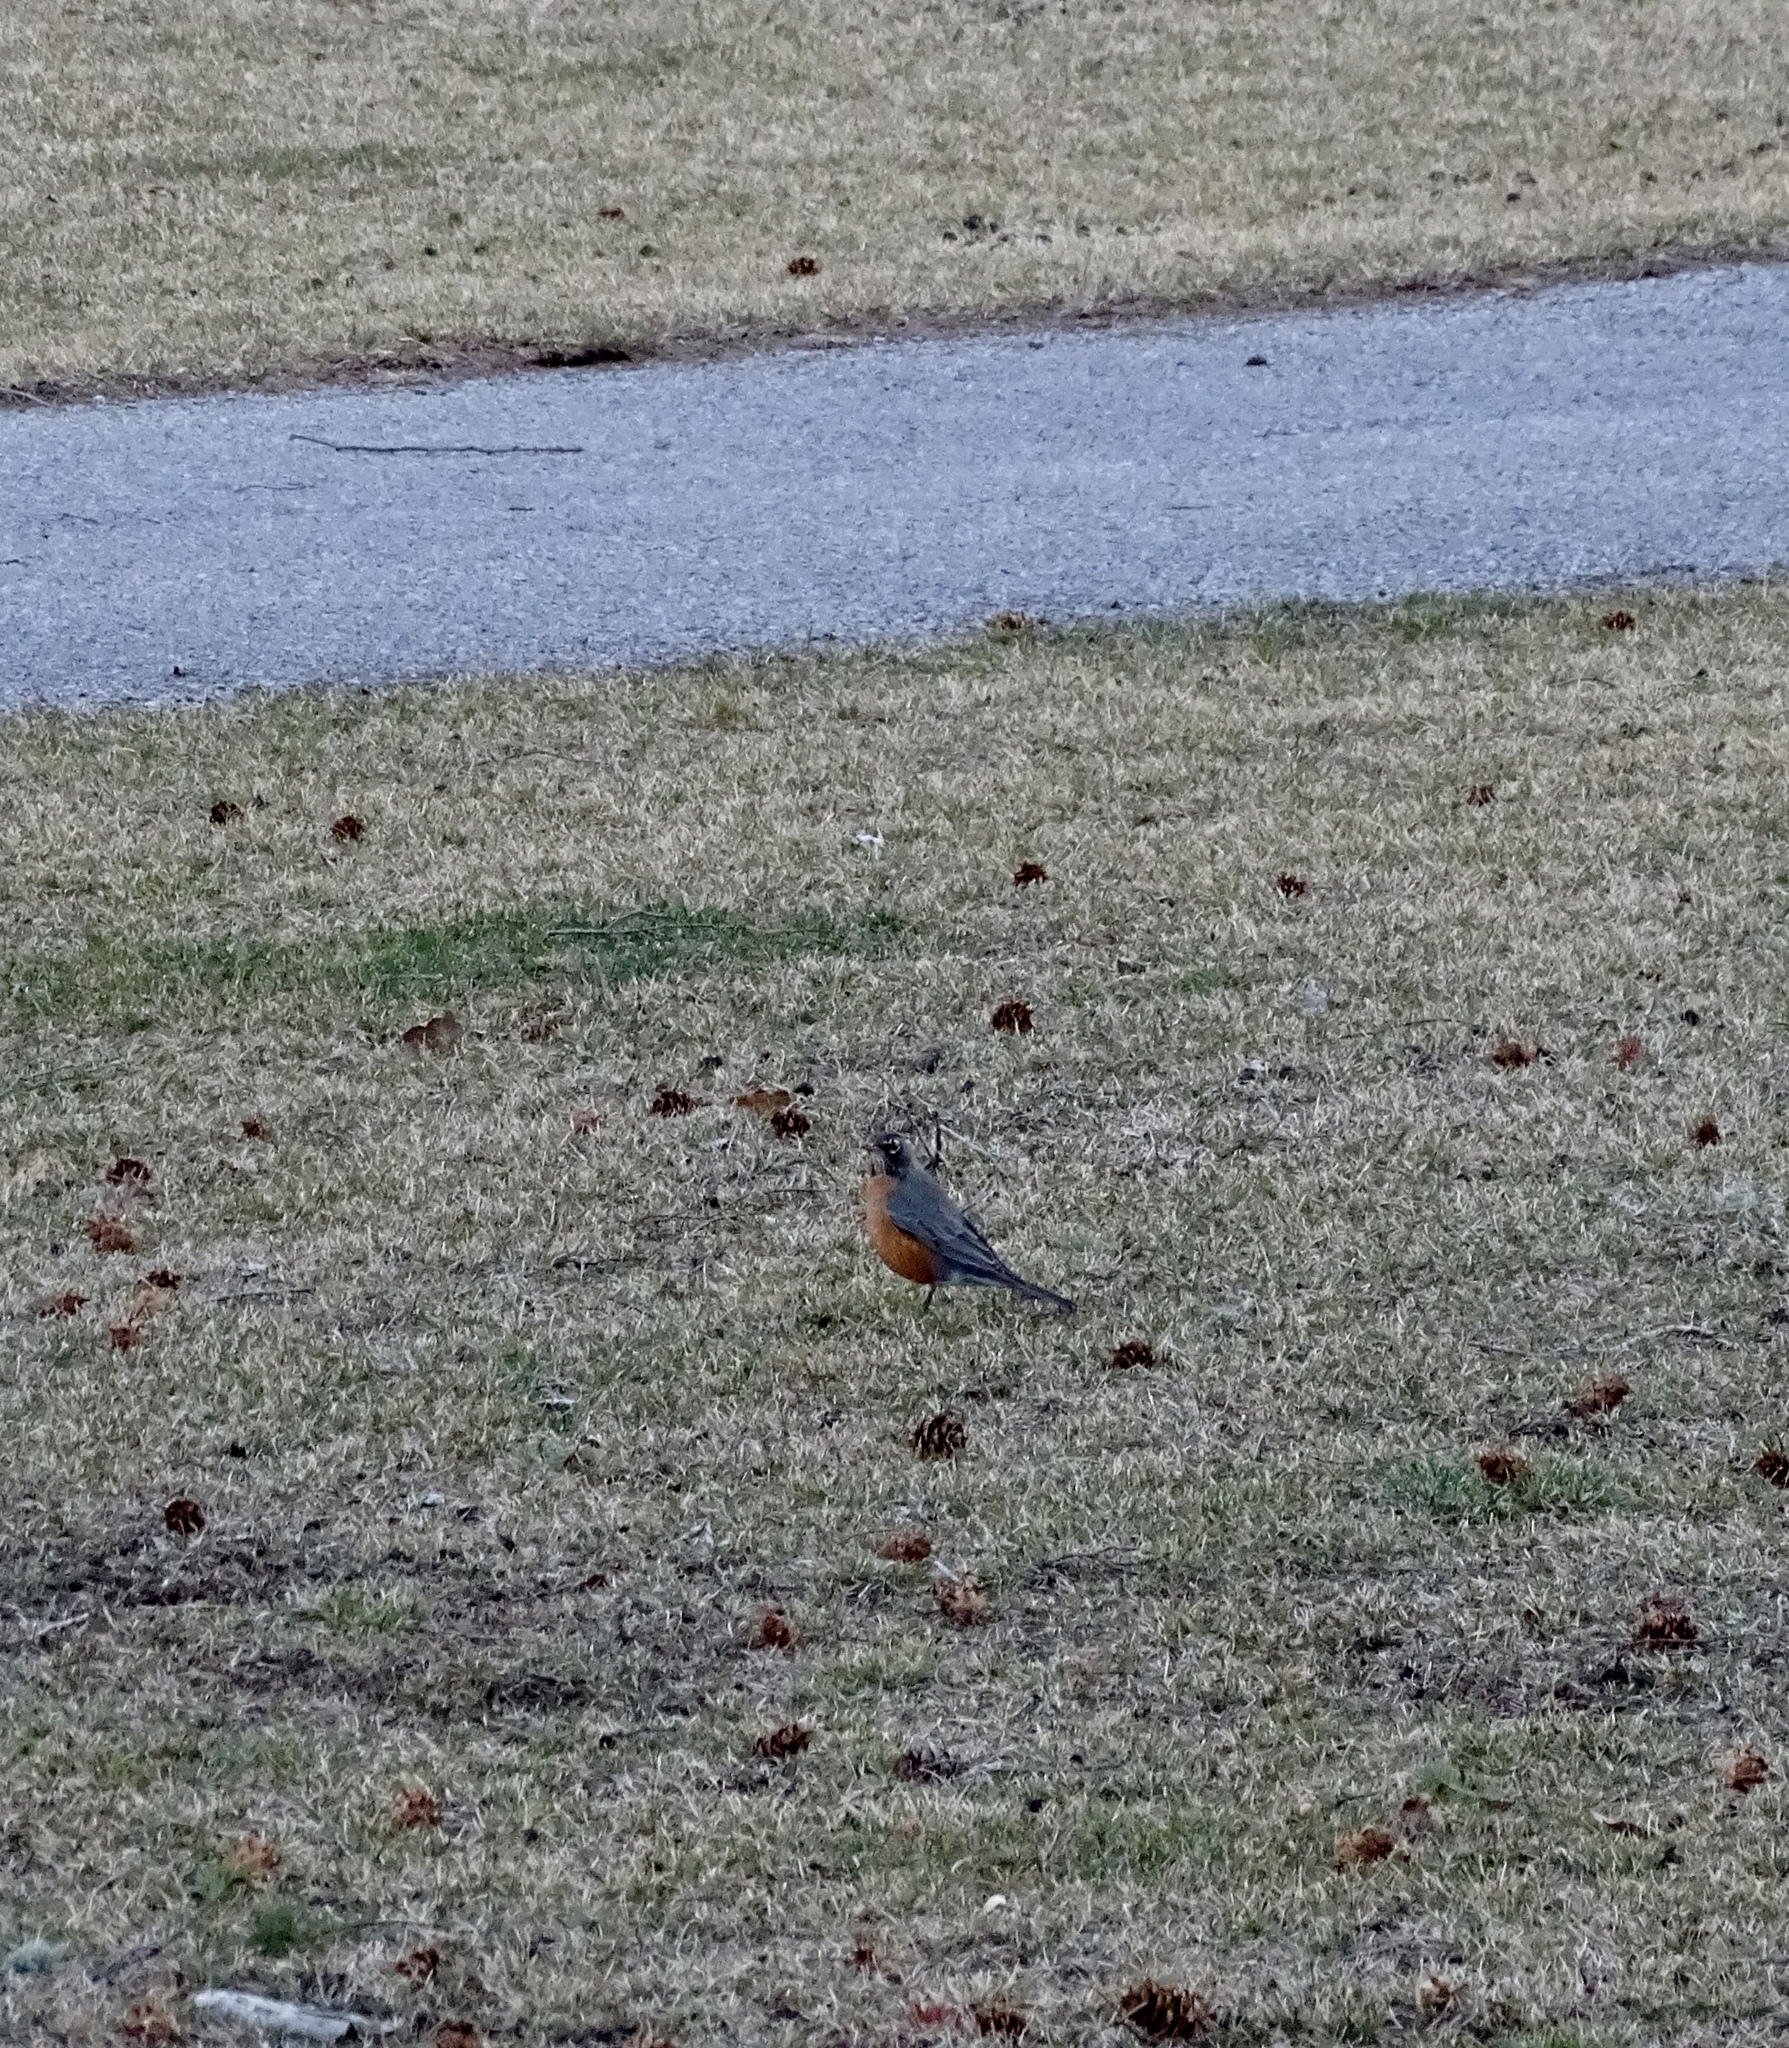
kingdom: Animalia
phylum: Chordata
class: Aves
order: Passeriformes
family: Turdidae
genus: Turdus
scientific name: Turdus migratorius
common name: American robin
